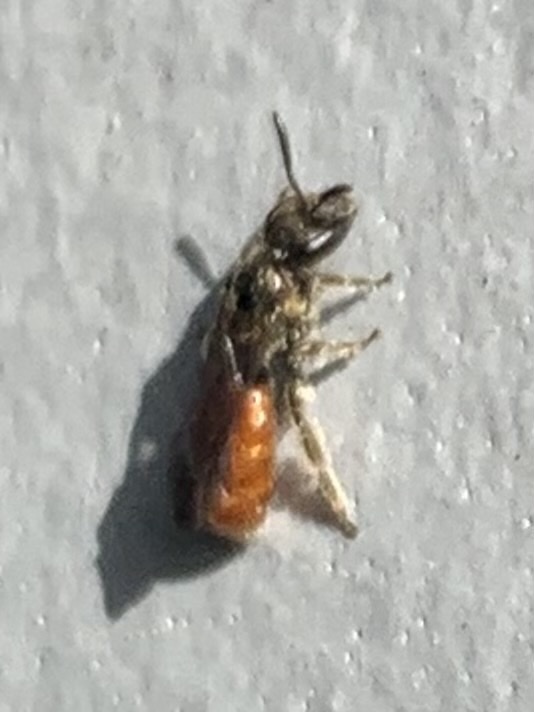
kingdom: Animalia
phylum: Arthropoda
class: Insecta
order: Hymenoptera
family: Halictidae
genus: Lasioglossum
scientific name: Lasioglossum ovaliceps
